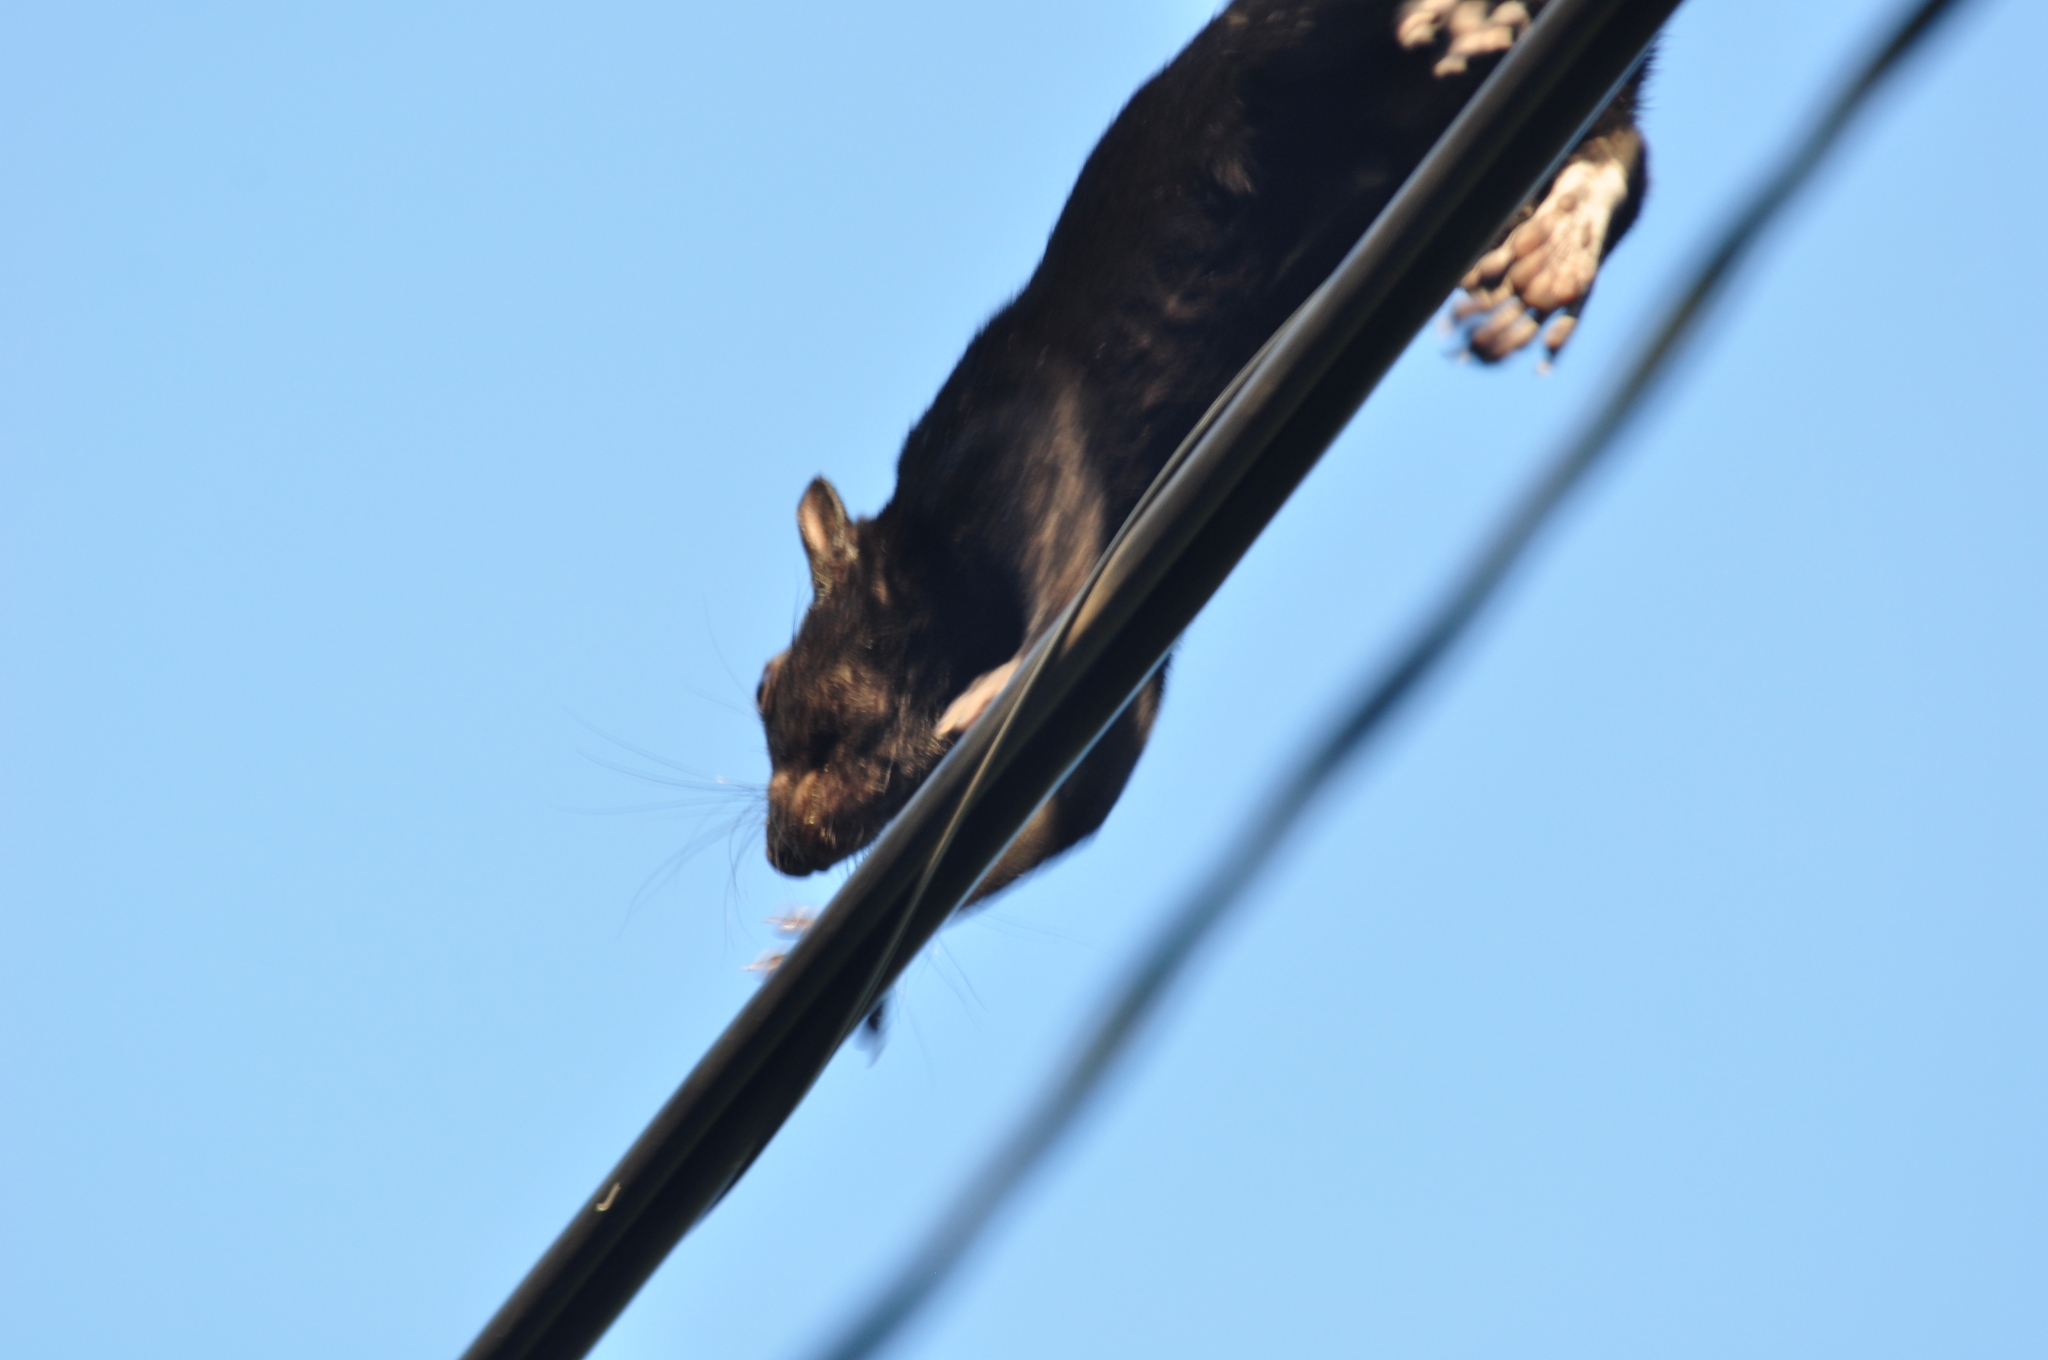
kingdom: Animalia
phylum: Chordata
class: Mammalia
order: Rodentia
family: Sciuridae
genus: Sciurus
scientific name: Sciurus aureogaster
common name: Red-bellied squirrel
